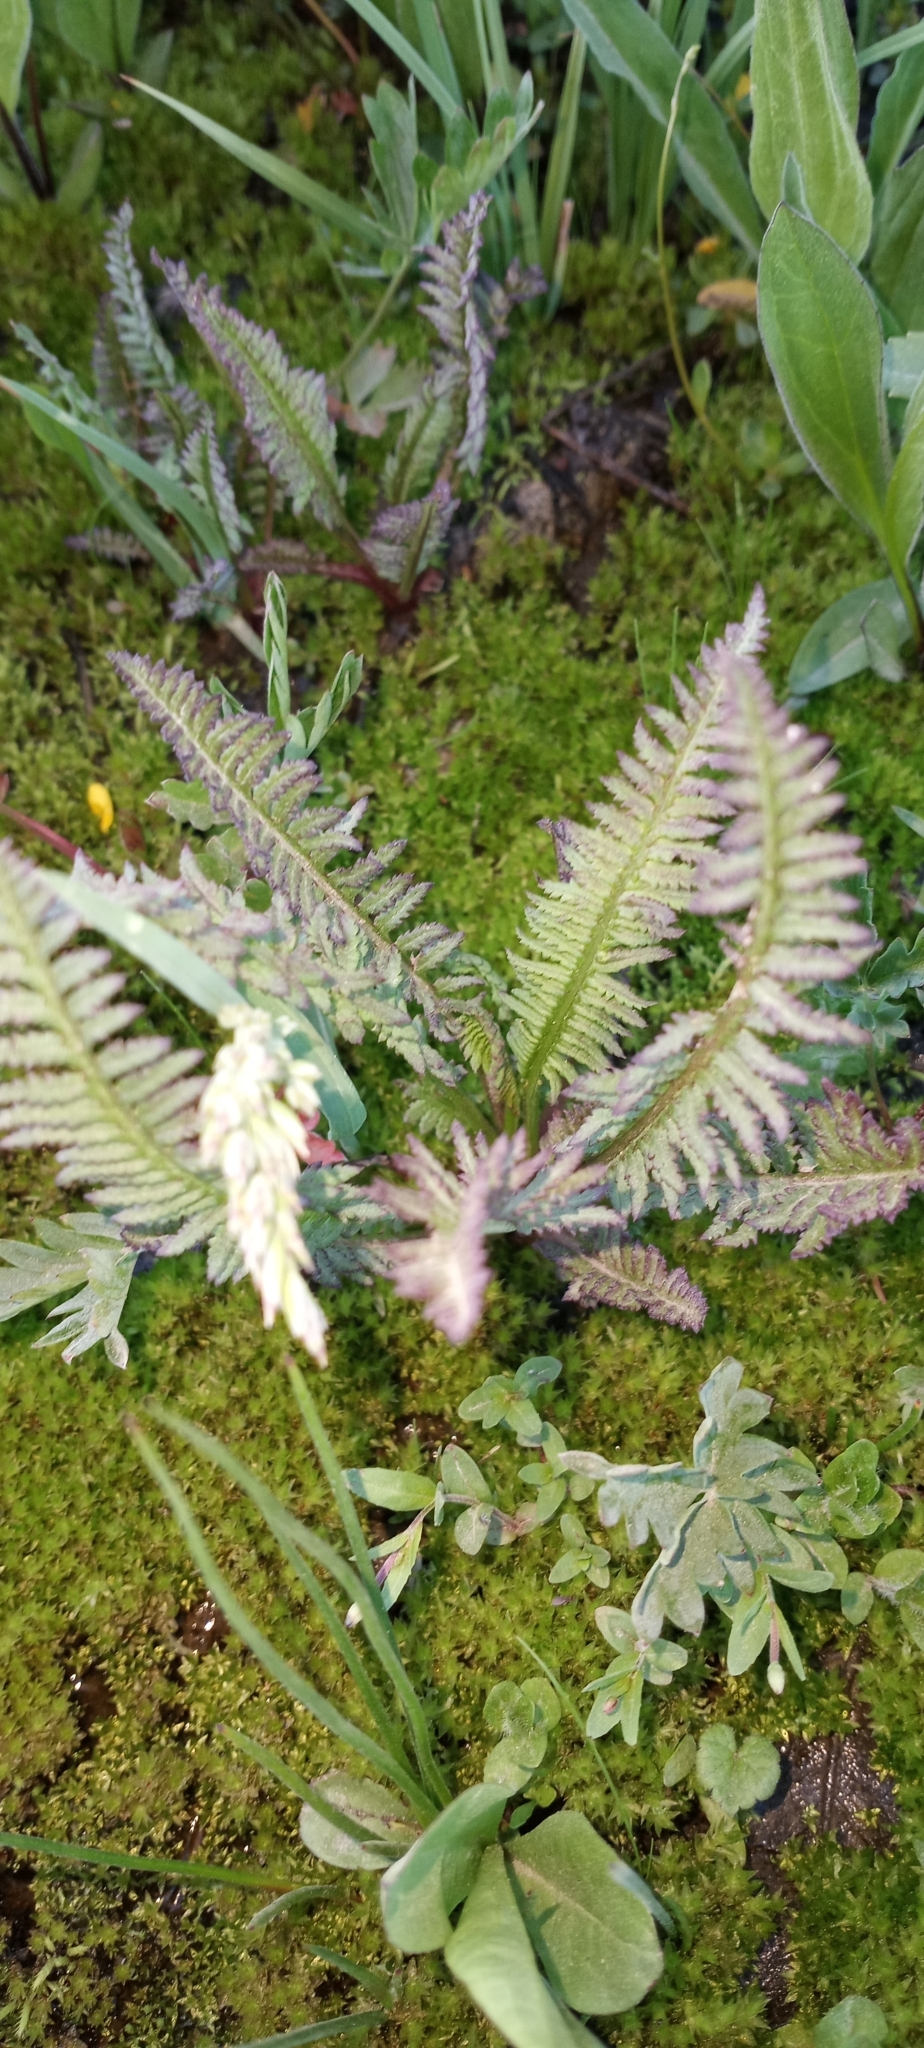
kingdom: Plantae
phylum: Tracheophyta
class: Magnoliopsida
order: Lamiales
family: Orobanchaceae
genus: Pedicularis
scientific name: Pedicularis groenlandica
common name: Elephant's-head
